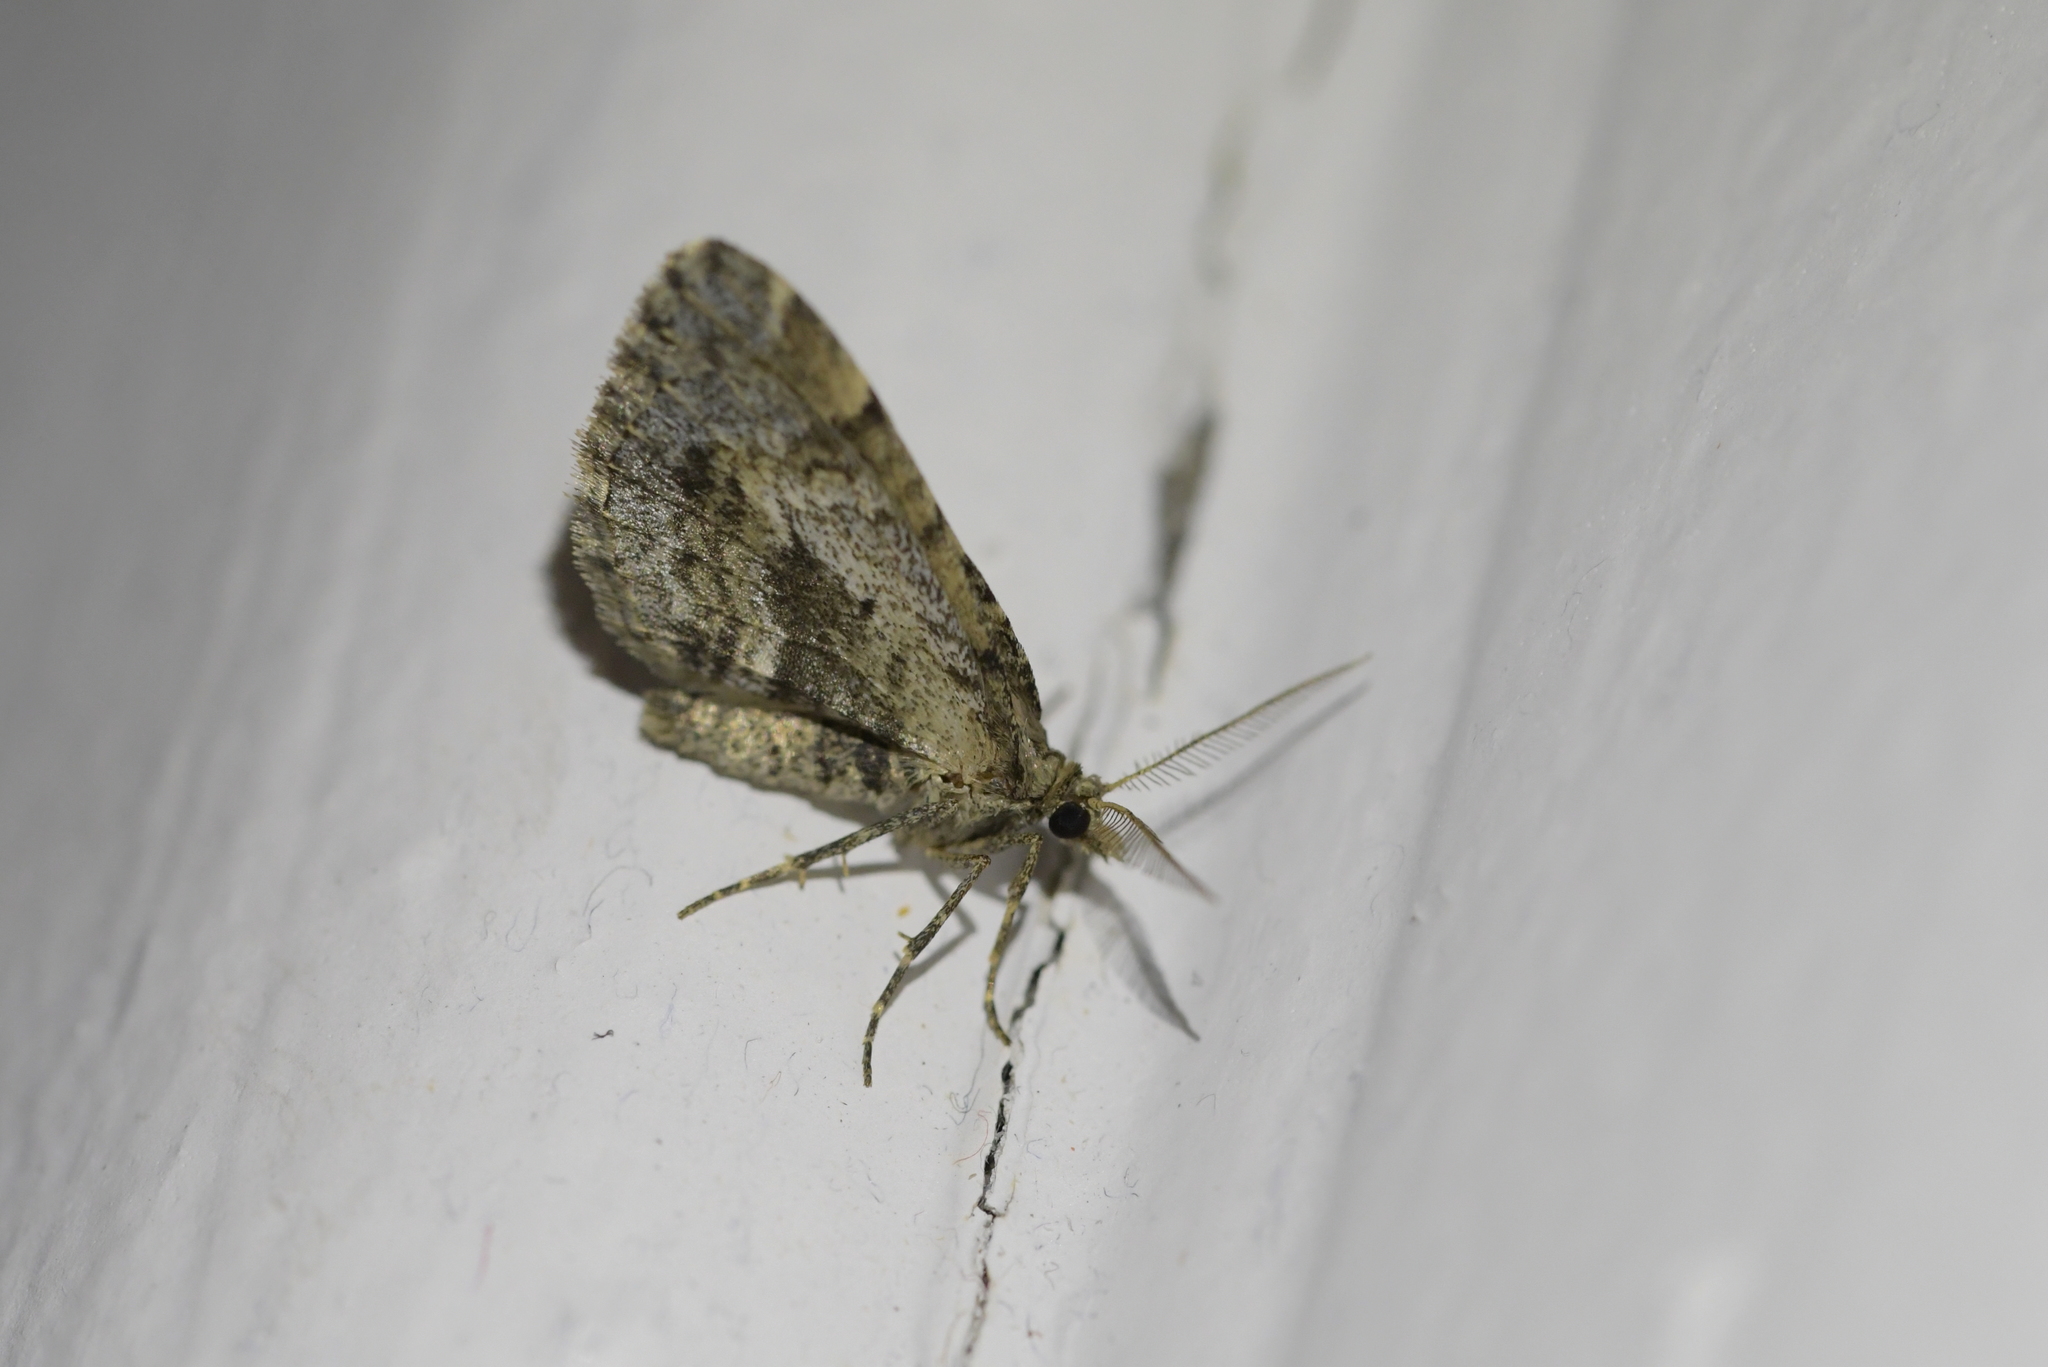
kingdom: Animalia
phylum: Arthropoda
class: Insecta
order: Lepidoptera
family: Geometridae
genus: Asaphodes
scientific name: Asaphodes aegrota
